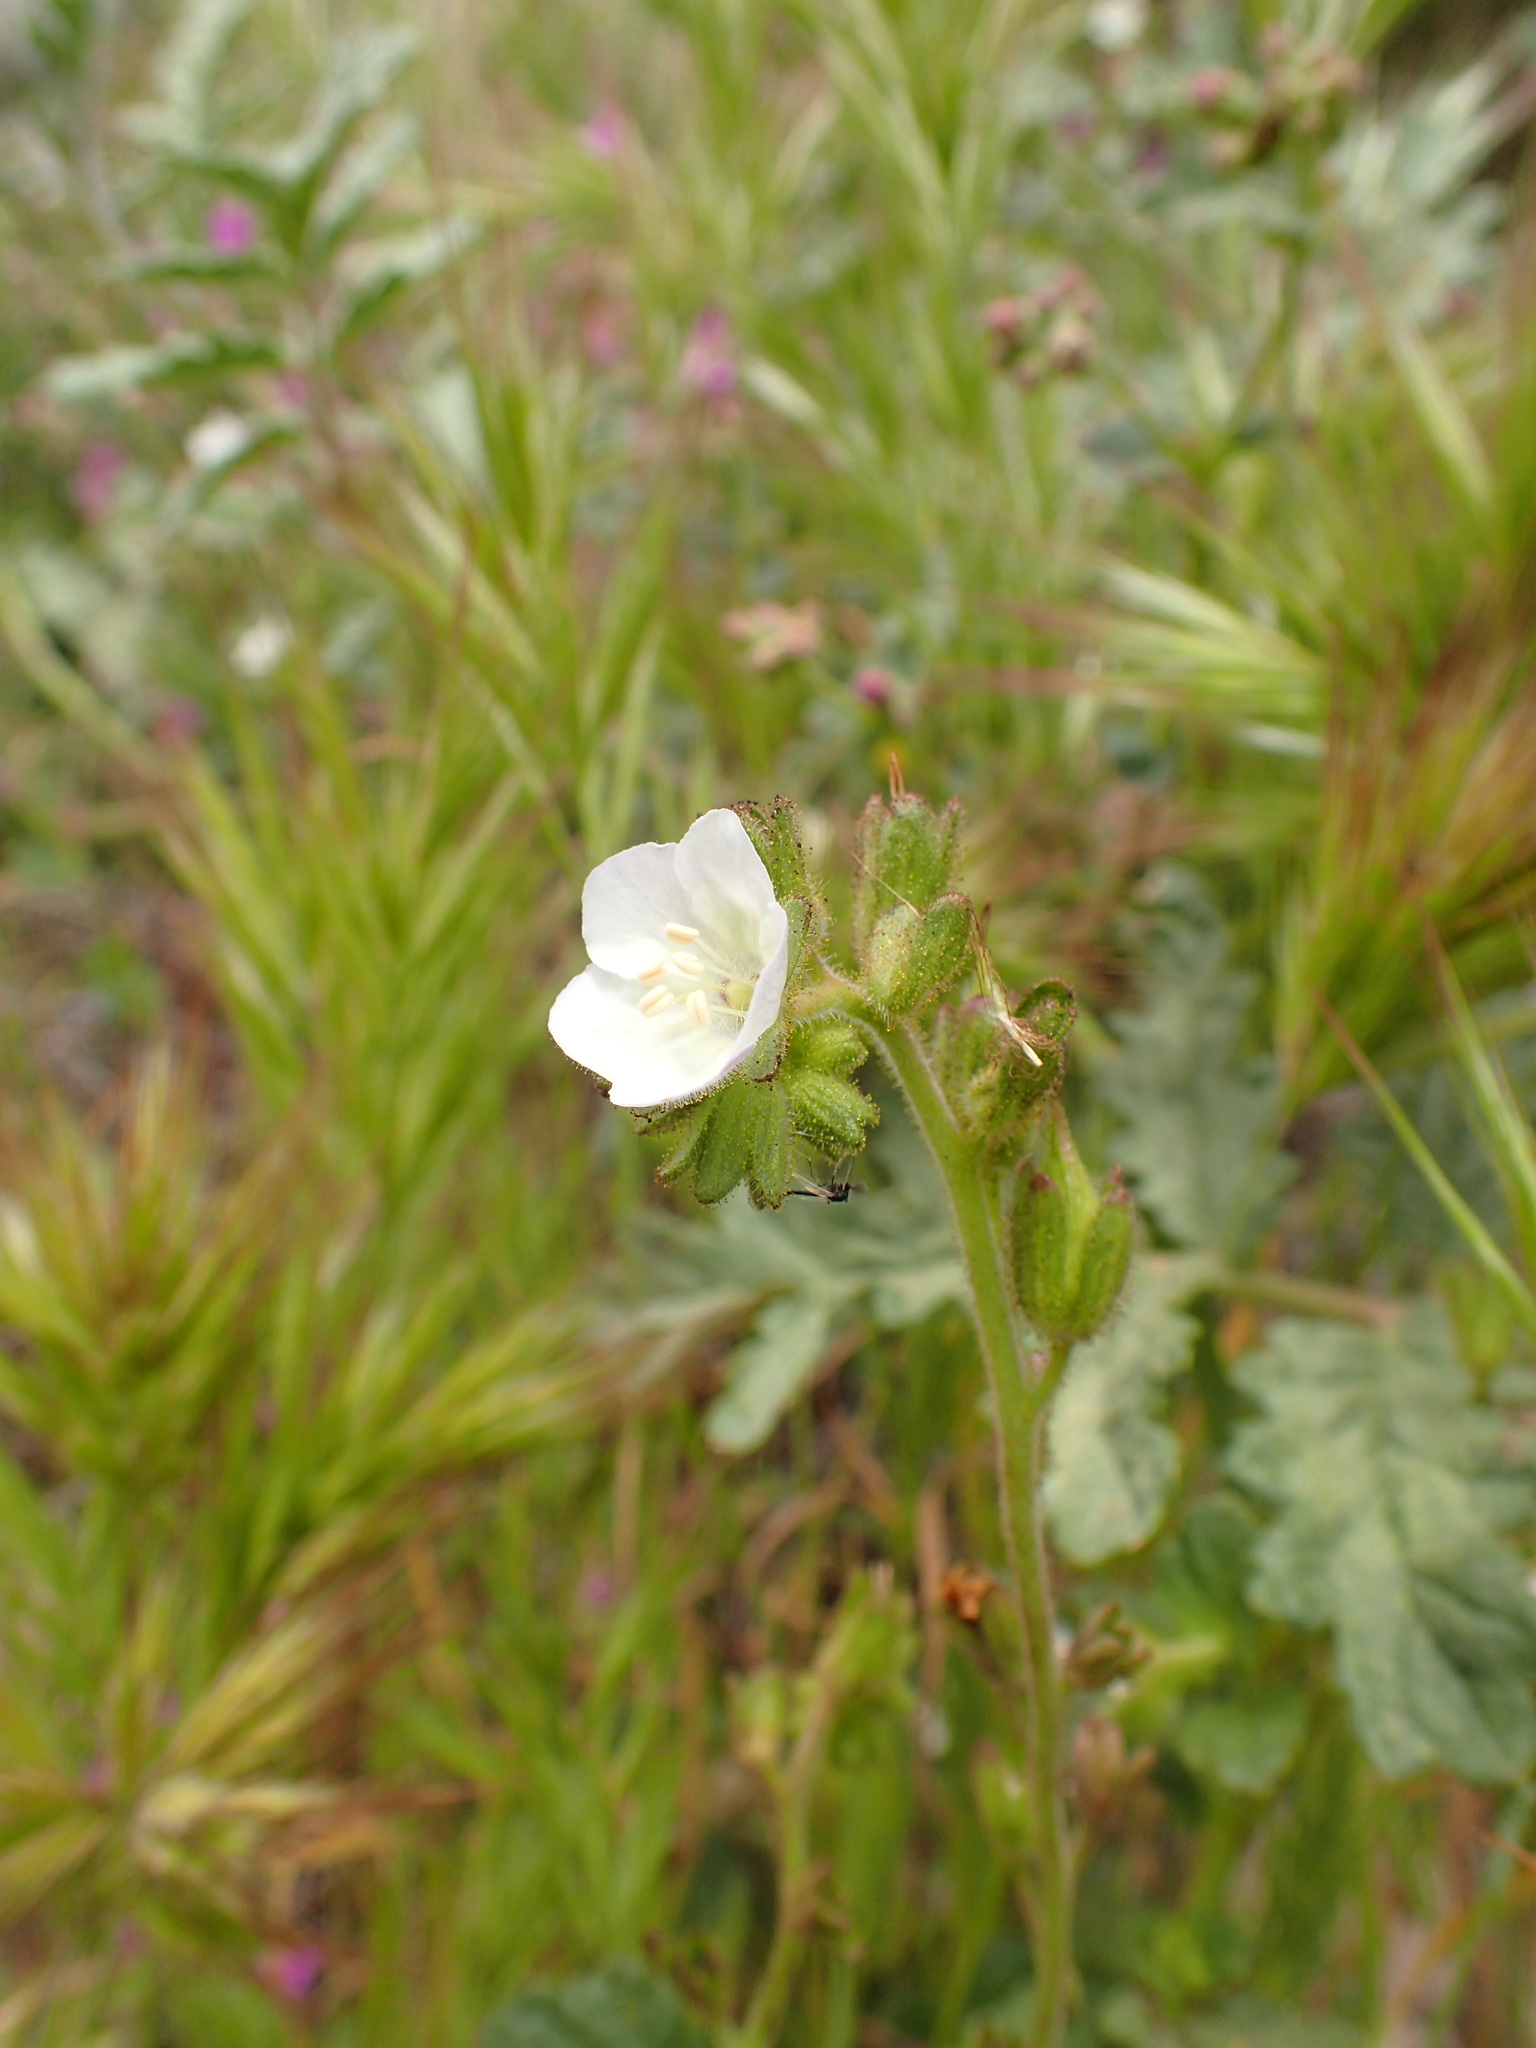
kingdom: Plantae
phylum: Tracheophyta
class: Magnoliopsida
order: Boraginales
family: Hydrophyllaceae
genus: Phacelia
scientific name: Phacelia viscida
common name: Sticky phacelia
